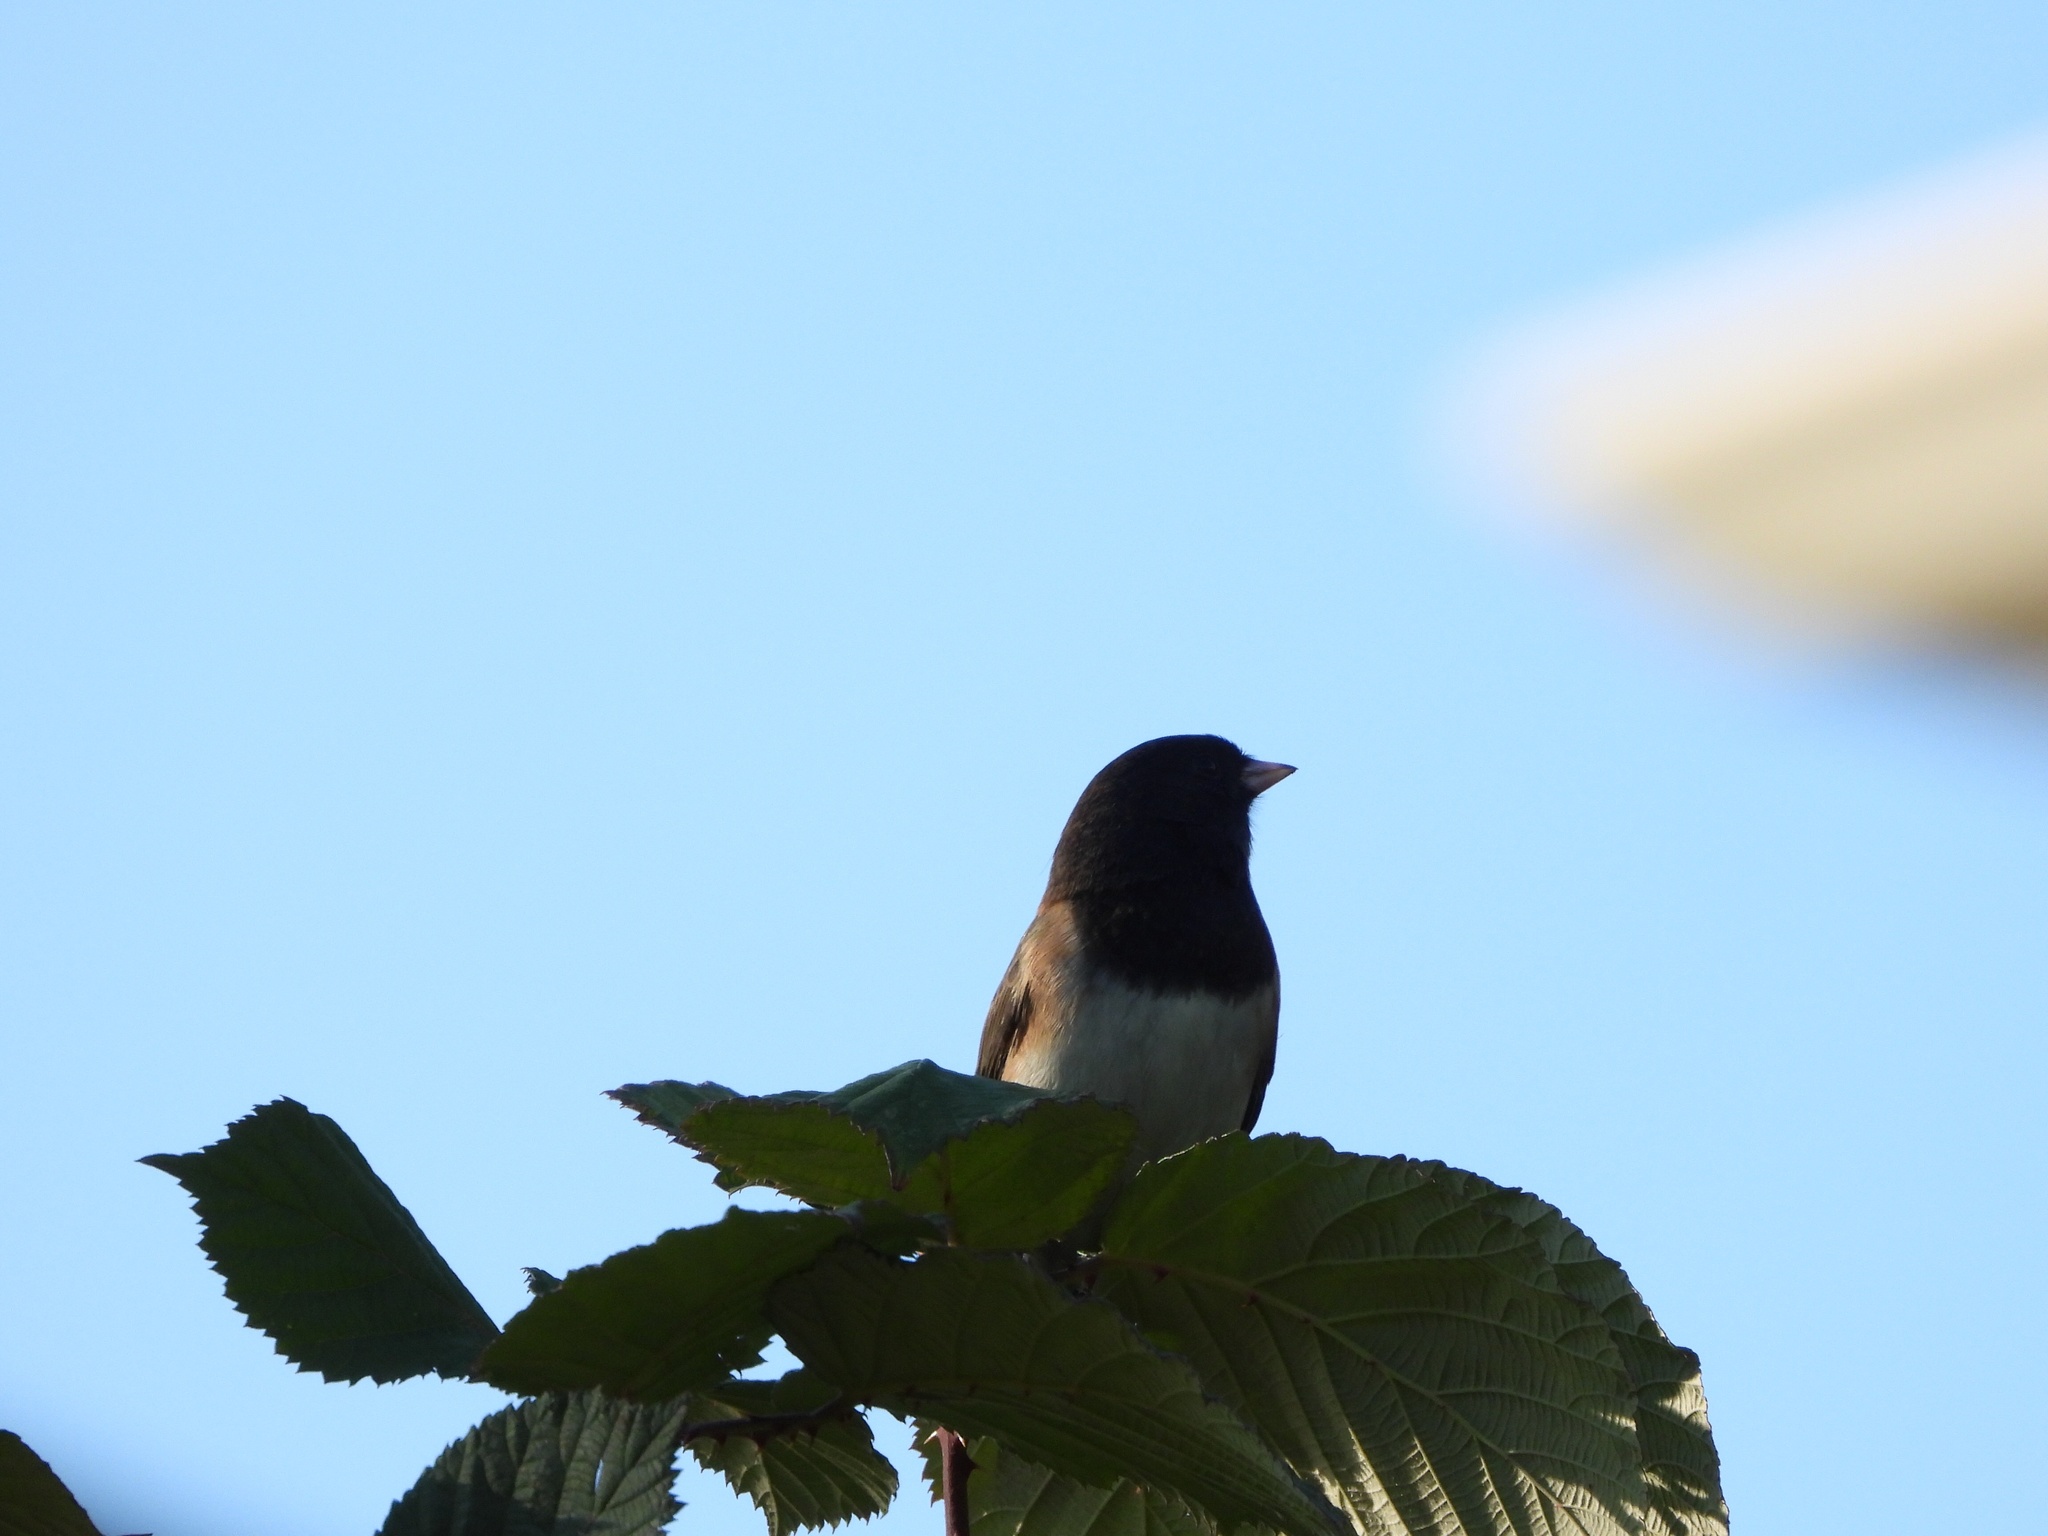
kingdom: Animalia
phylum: Chordata
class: Aves
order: Passeriformes
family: Passerellidae
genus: Junco
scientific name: Junco hyemalis
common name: Dark-eyed junco
